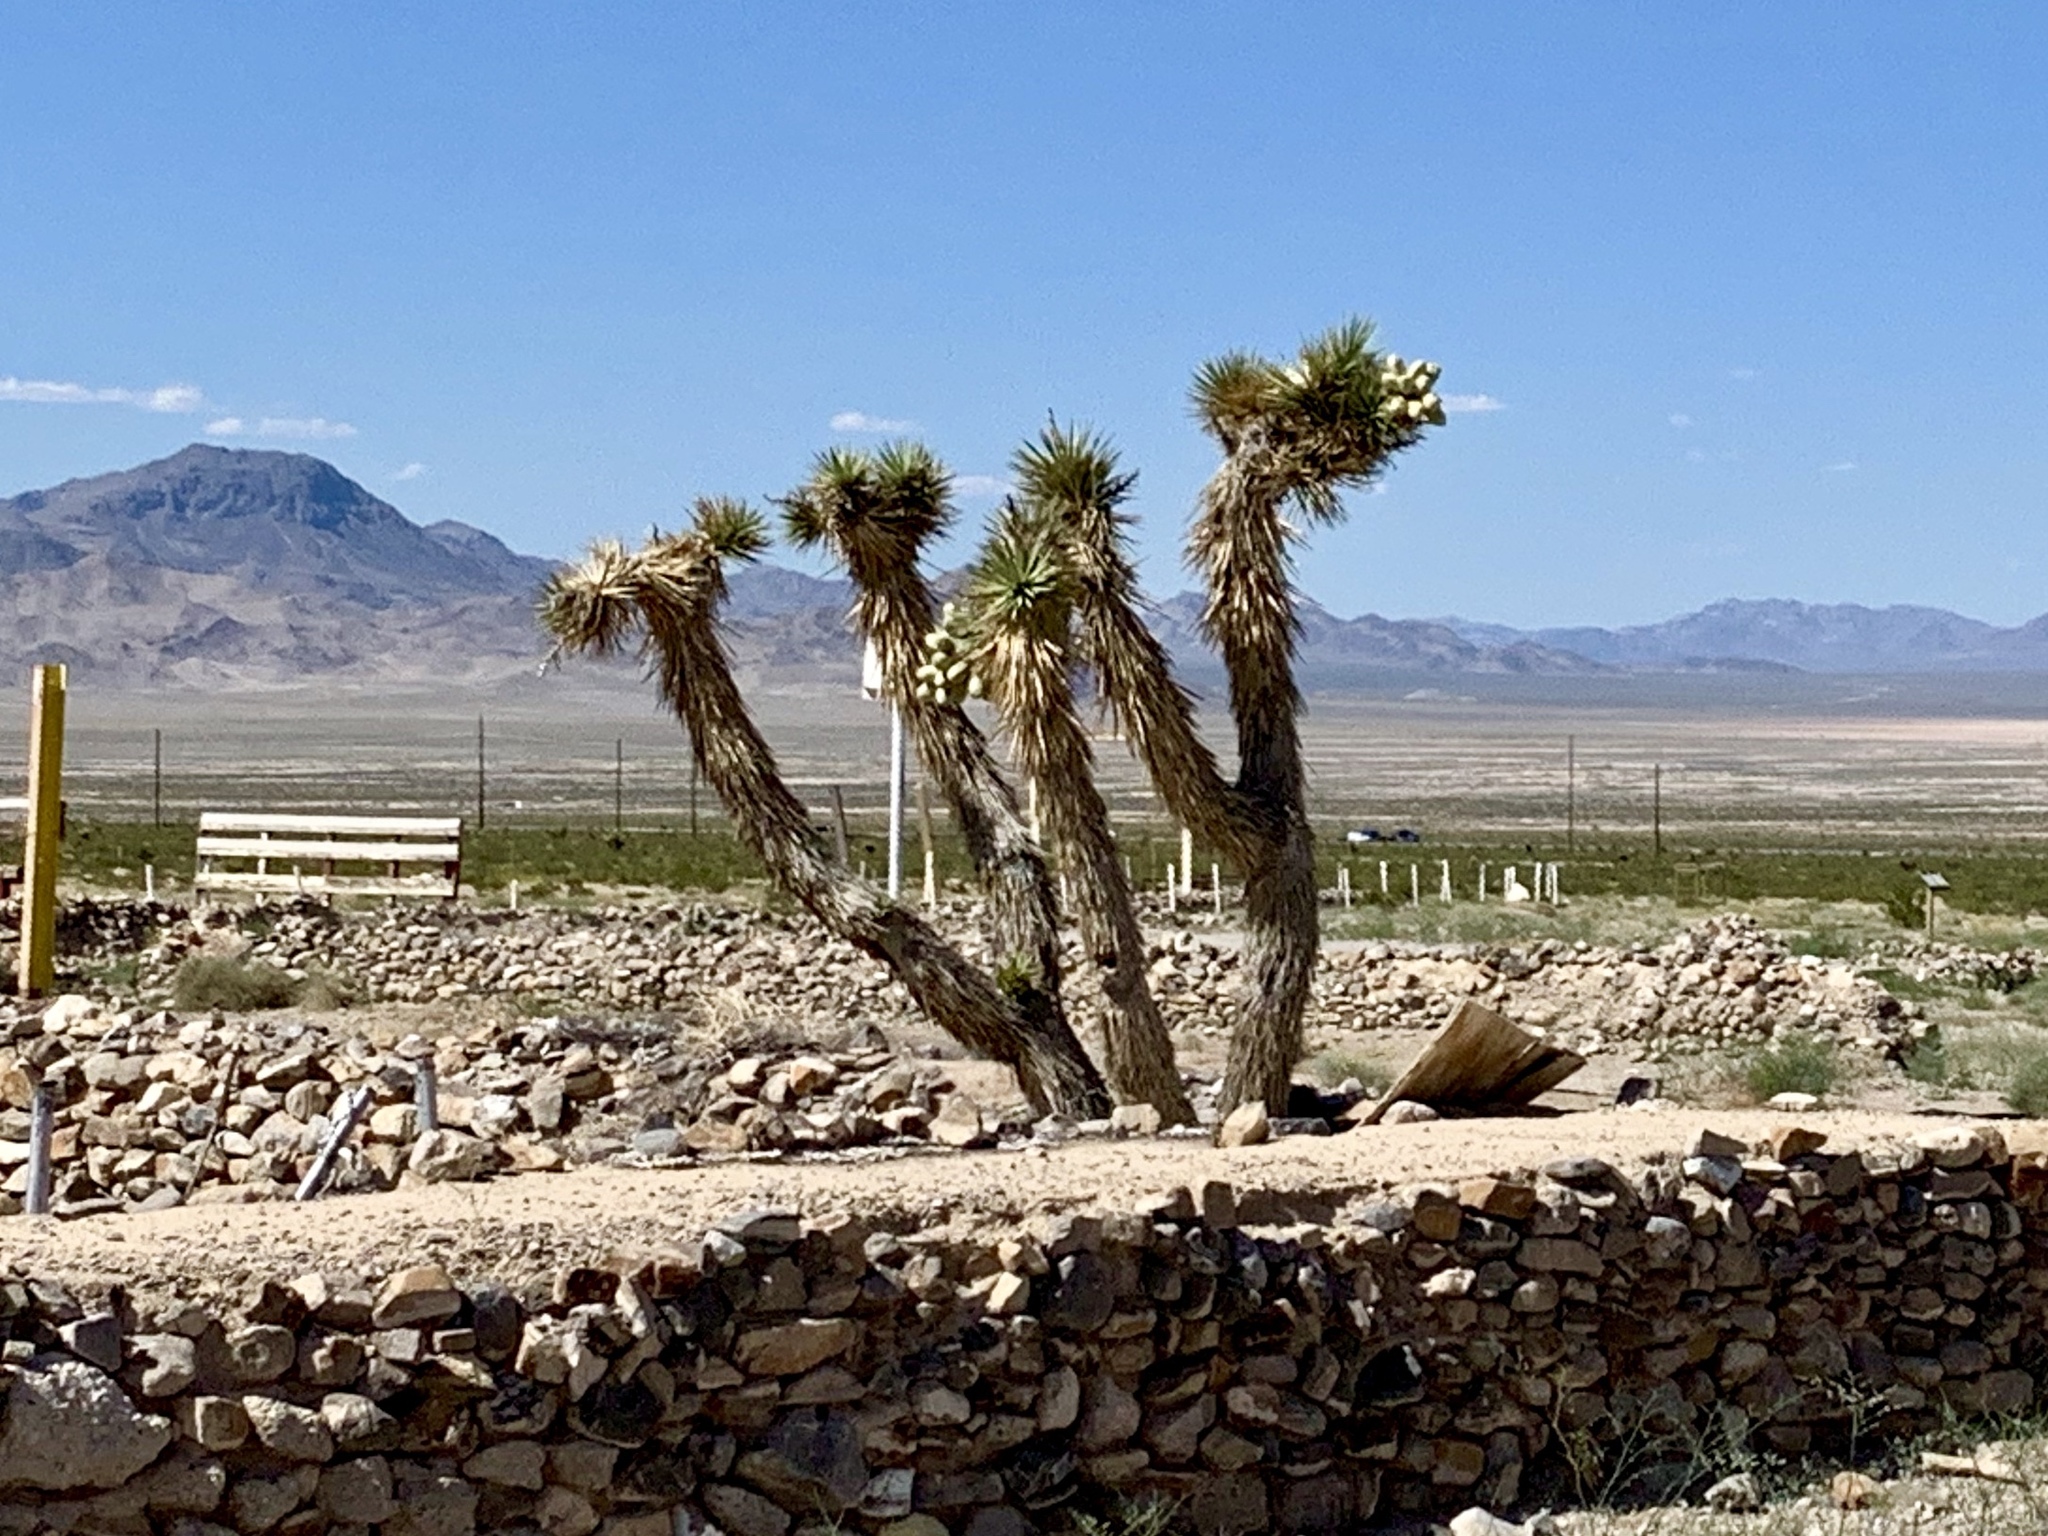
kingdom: Plantae
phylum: Tracheophyta
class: Liliopsida
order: Asparagales
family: Asparagaceae
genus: Yucca
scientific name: Yucca brevifolia
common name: Joshua tree
